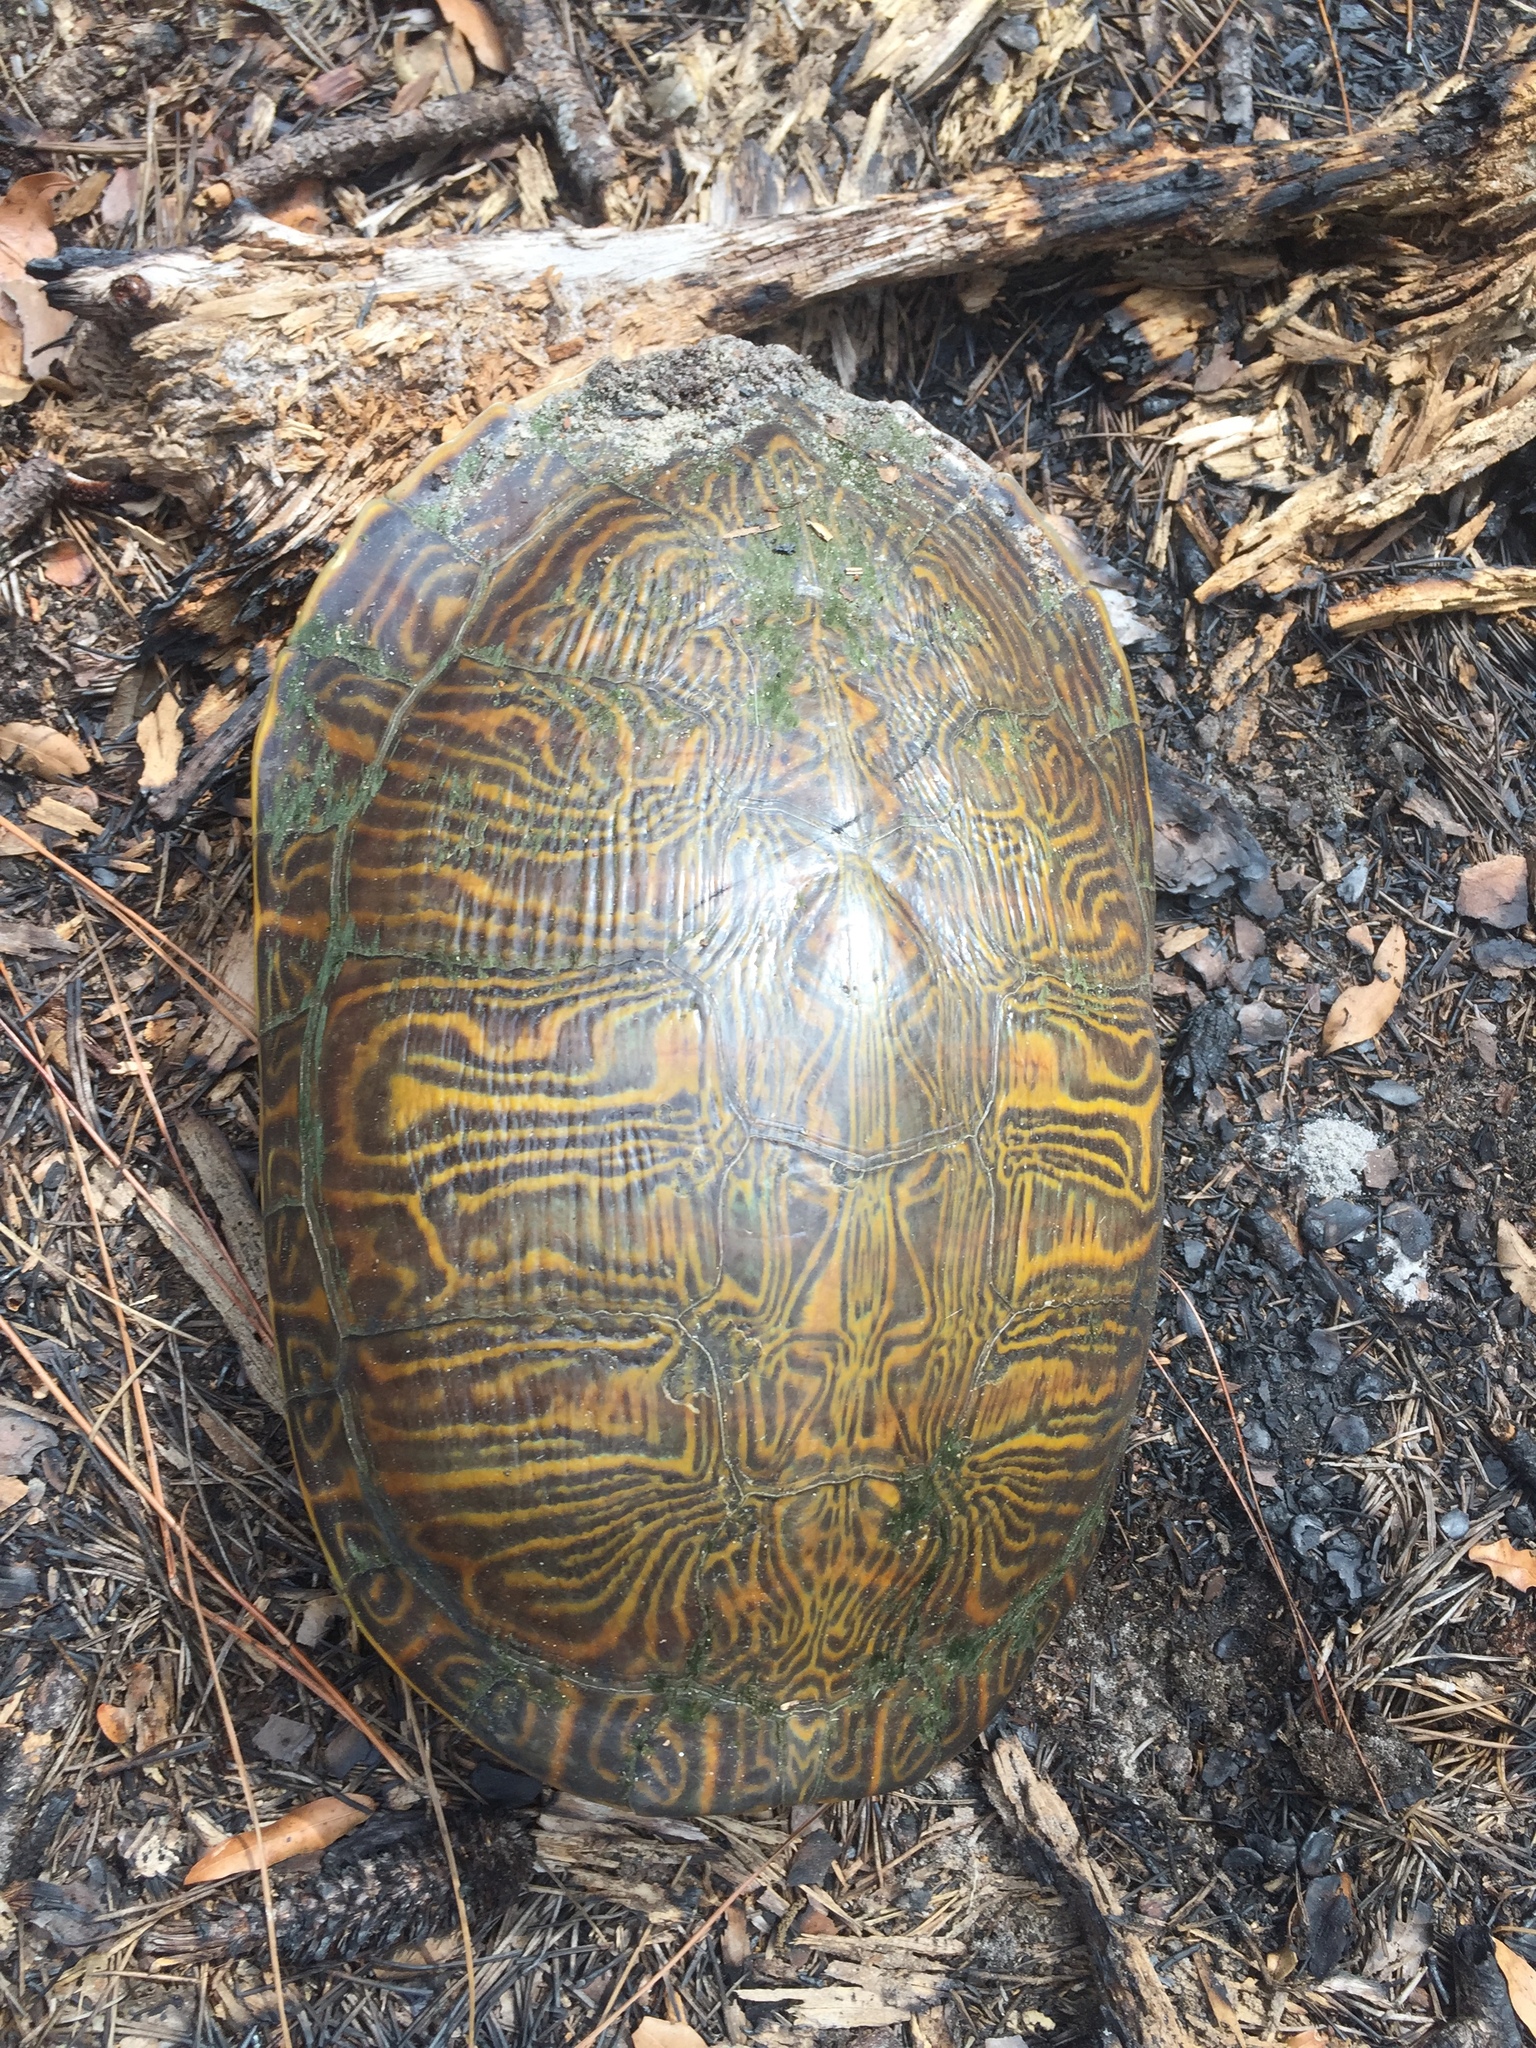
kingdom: Animalia
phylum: Chordata
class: Testudines
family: Emydidae
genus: Pseudemys
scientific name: Pseudemys peninsularis
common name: Peninsula cooter
